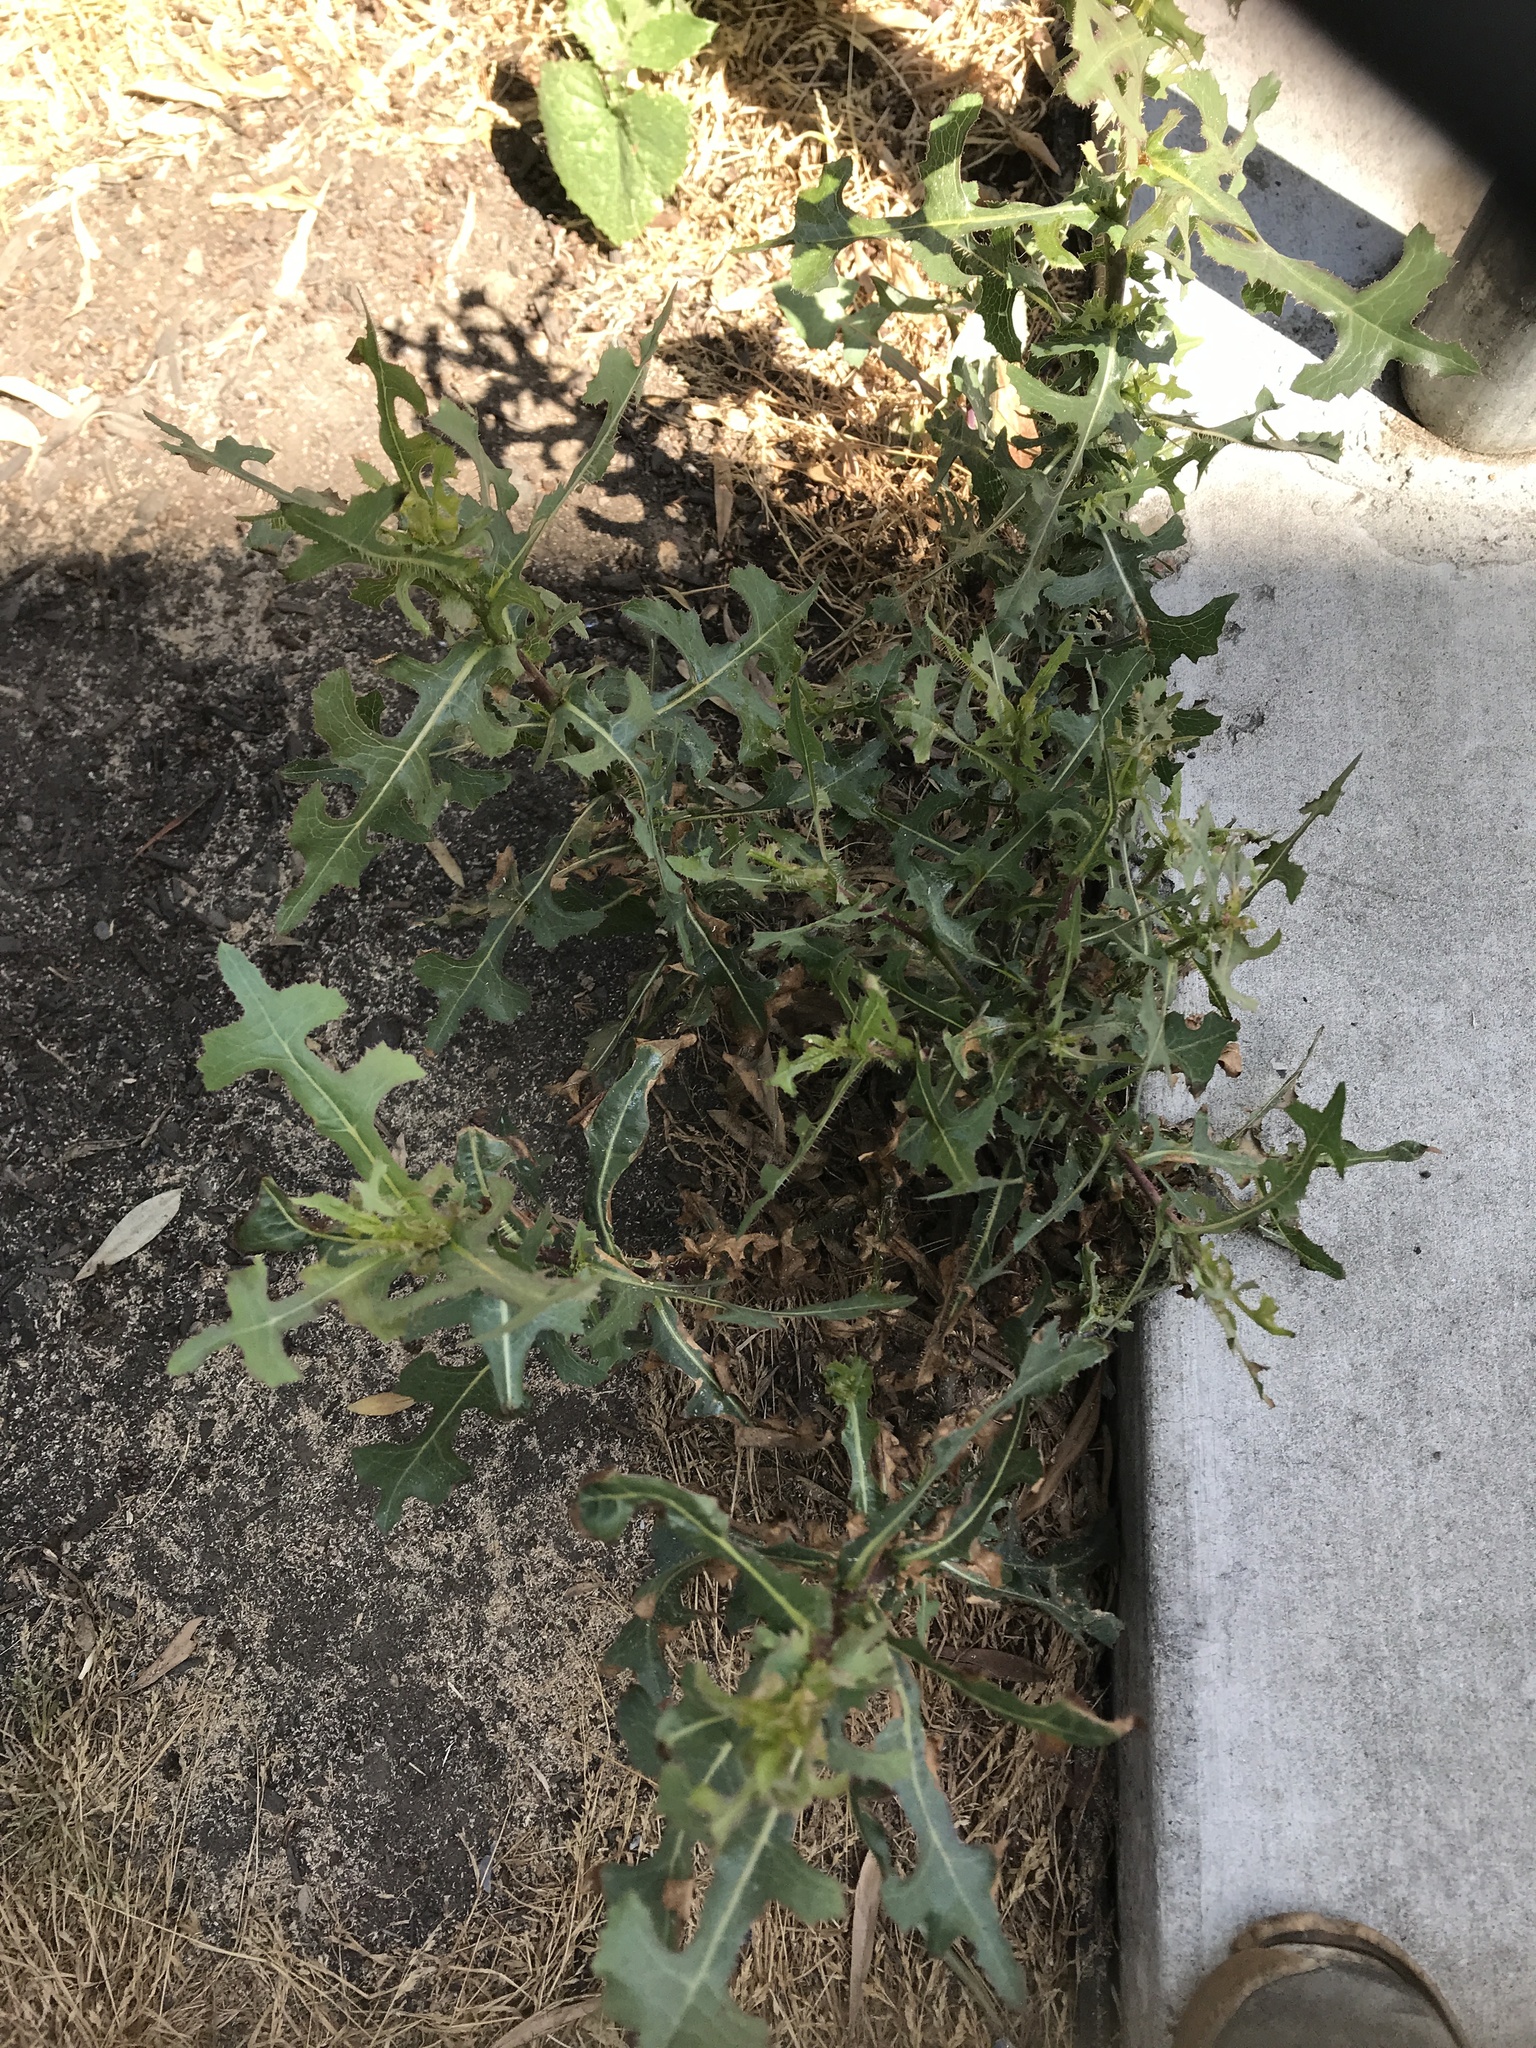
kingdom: Plantae
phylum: Tracheophyta
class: Magnoliopsida
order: Asterales
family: Asteraceae
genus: Lactuca
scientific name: Lactuca serriola
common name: Prickly lettuce
